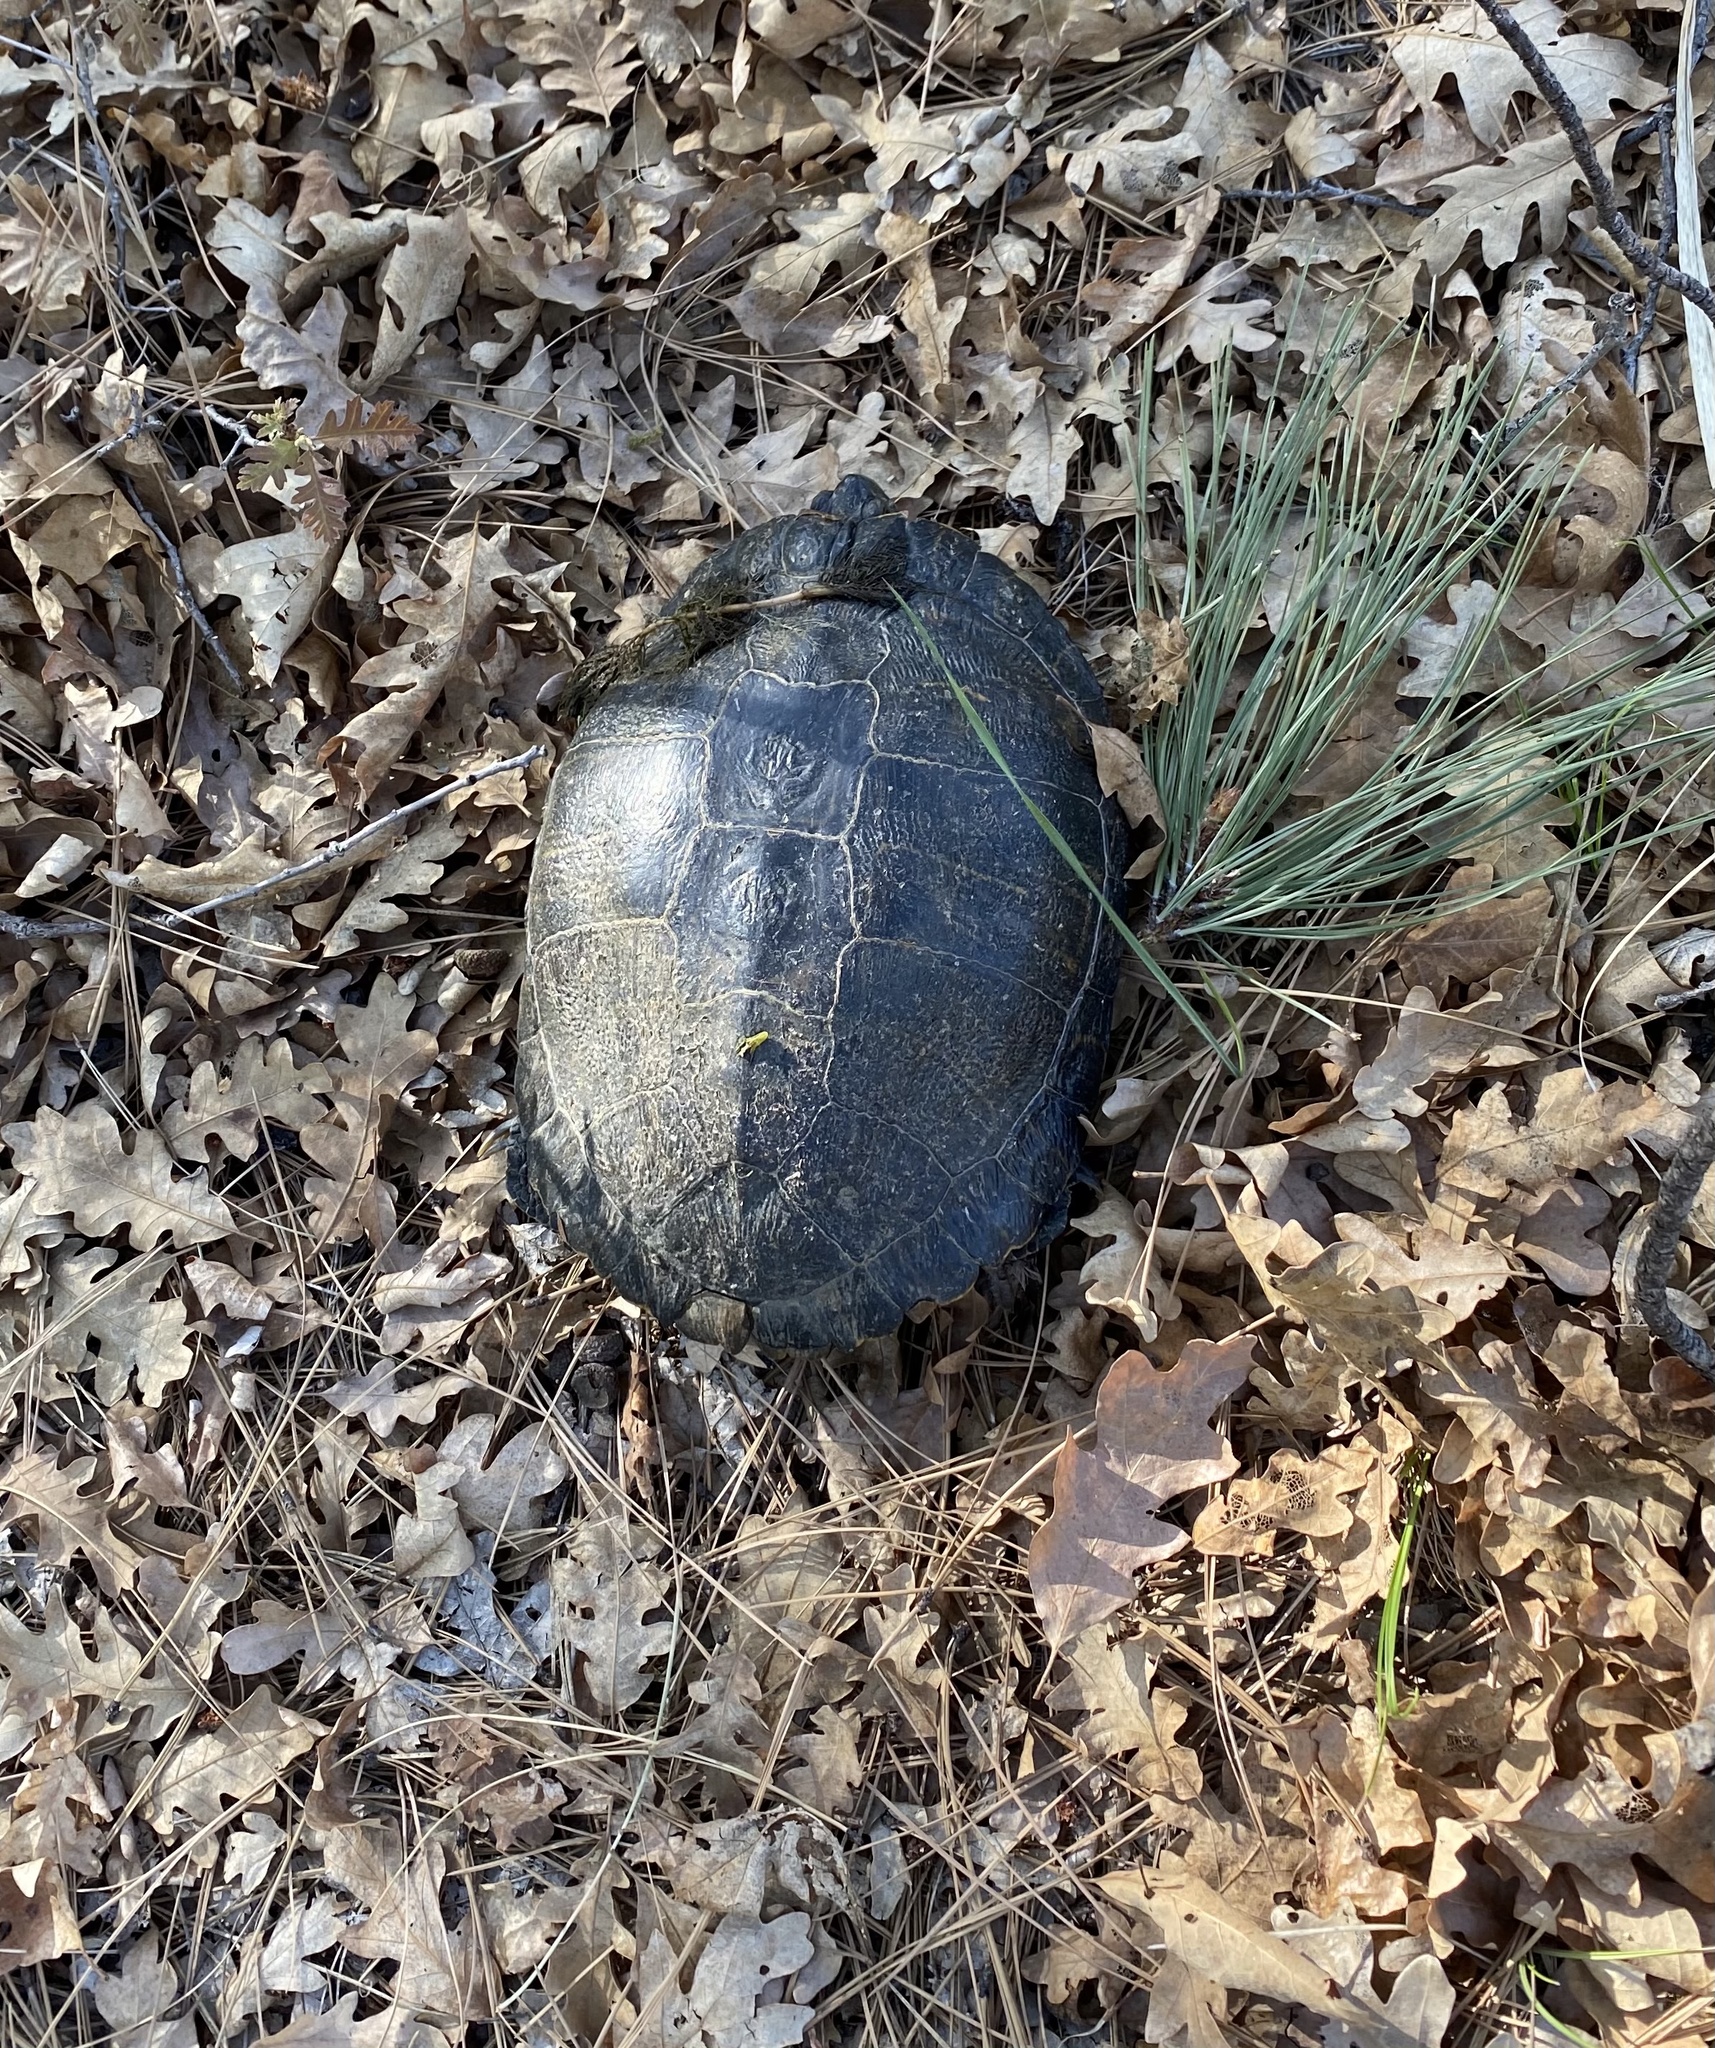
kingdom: Animalia
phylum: Chordata
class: Testudines
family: Emydidae
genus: Trachemys
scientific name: Trachemys scripta
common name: Slider
